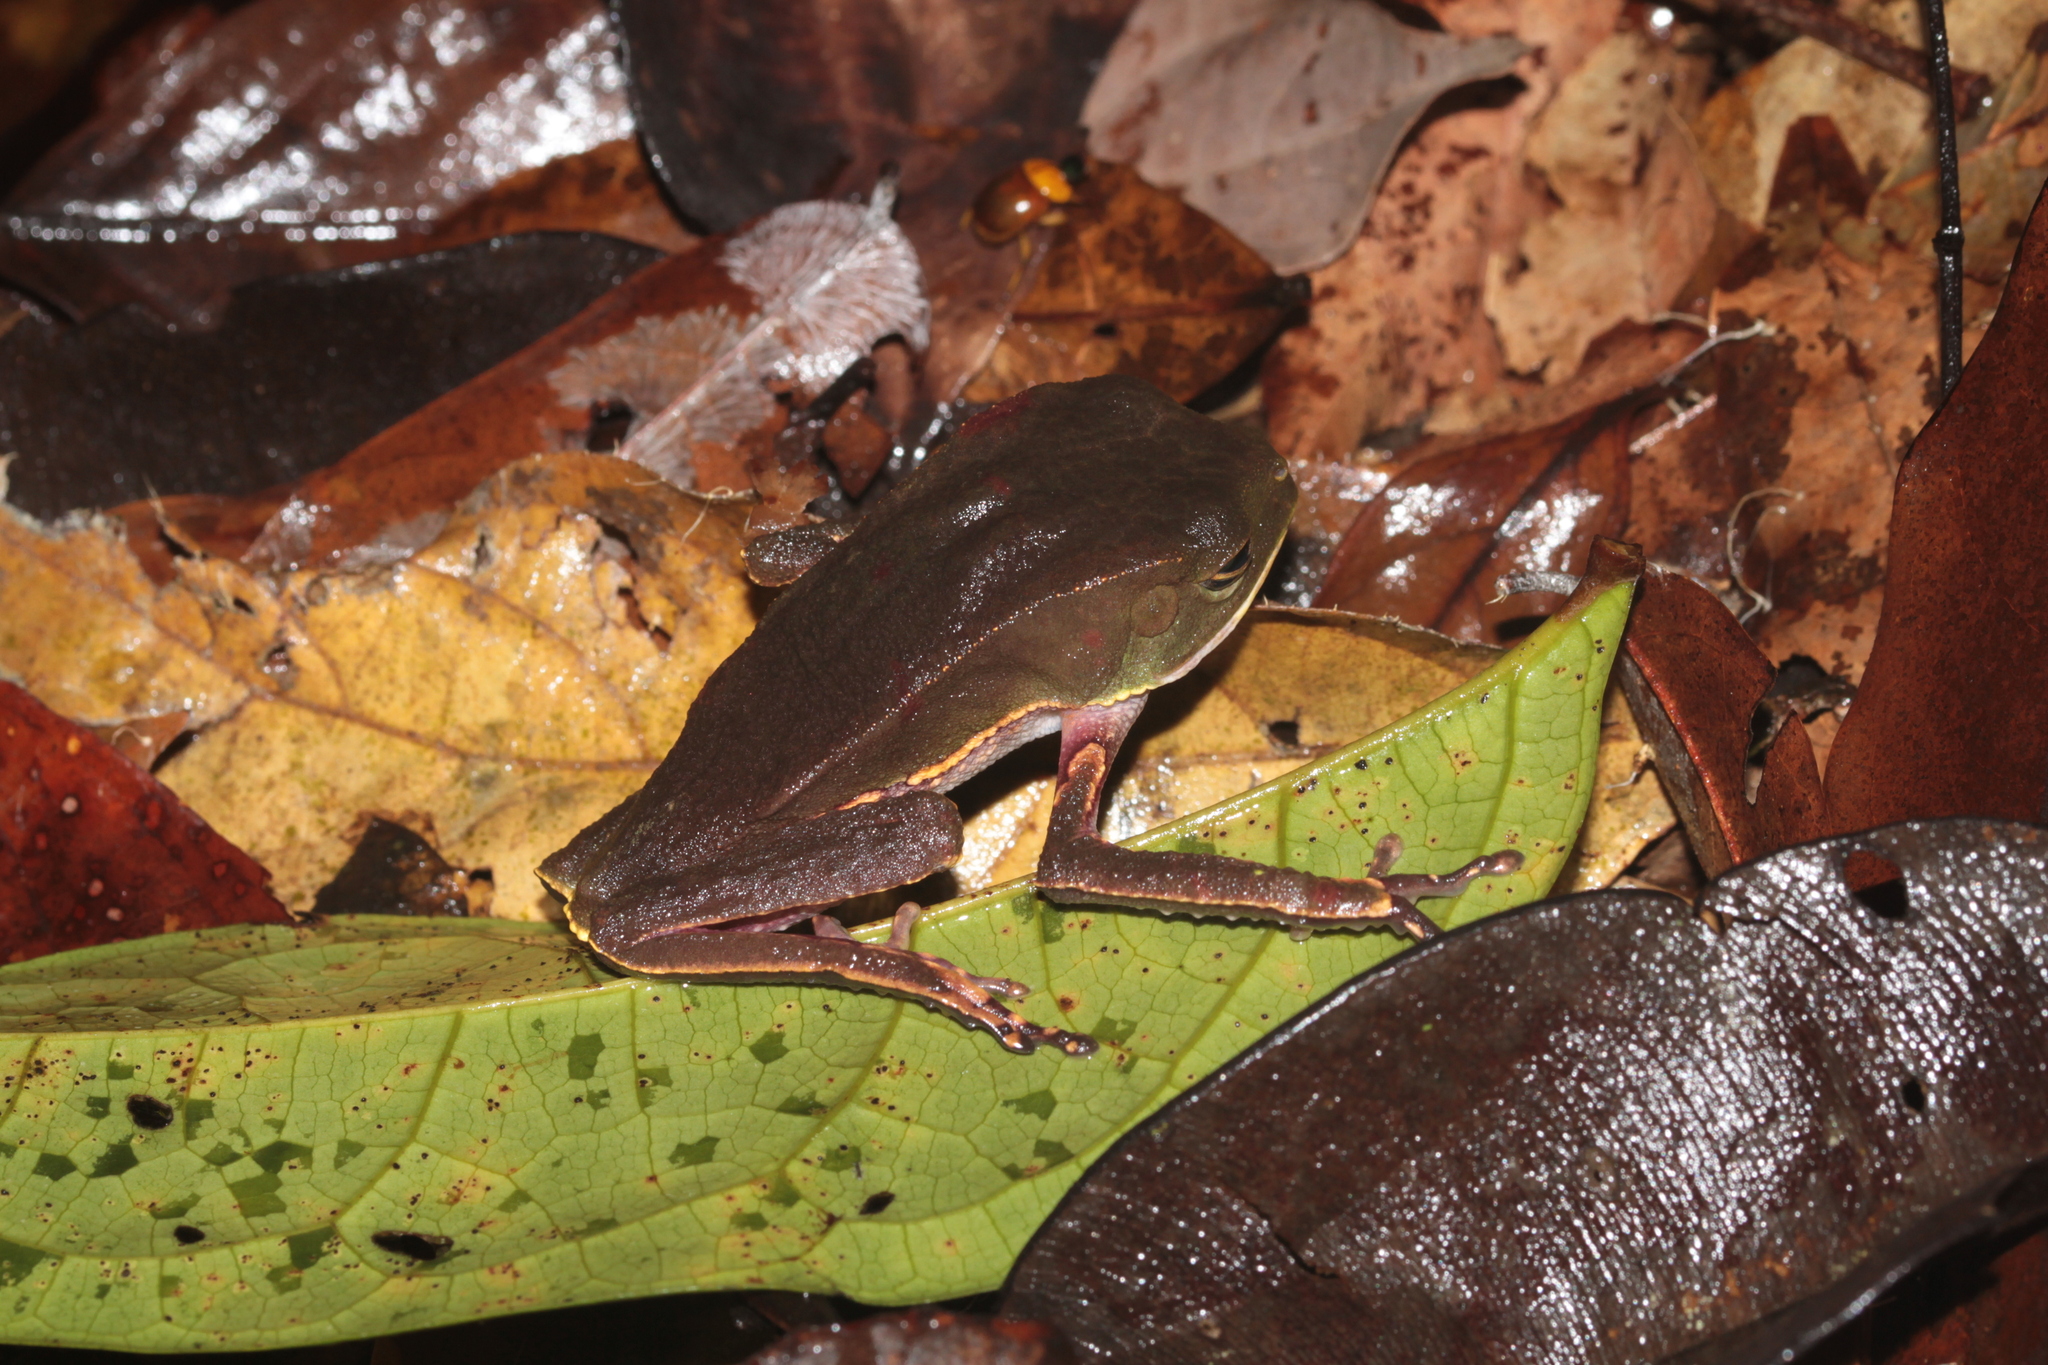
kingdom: Animalia
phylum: Chordata
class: Amphibia
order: Anura
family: Phyllomedusidae
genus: Phyllomedusa
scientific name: Phyllomedusa vaillantii
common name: White-lined leaf frog
